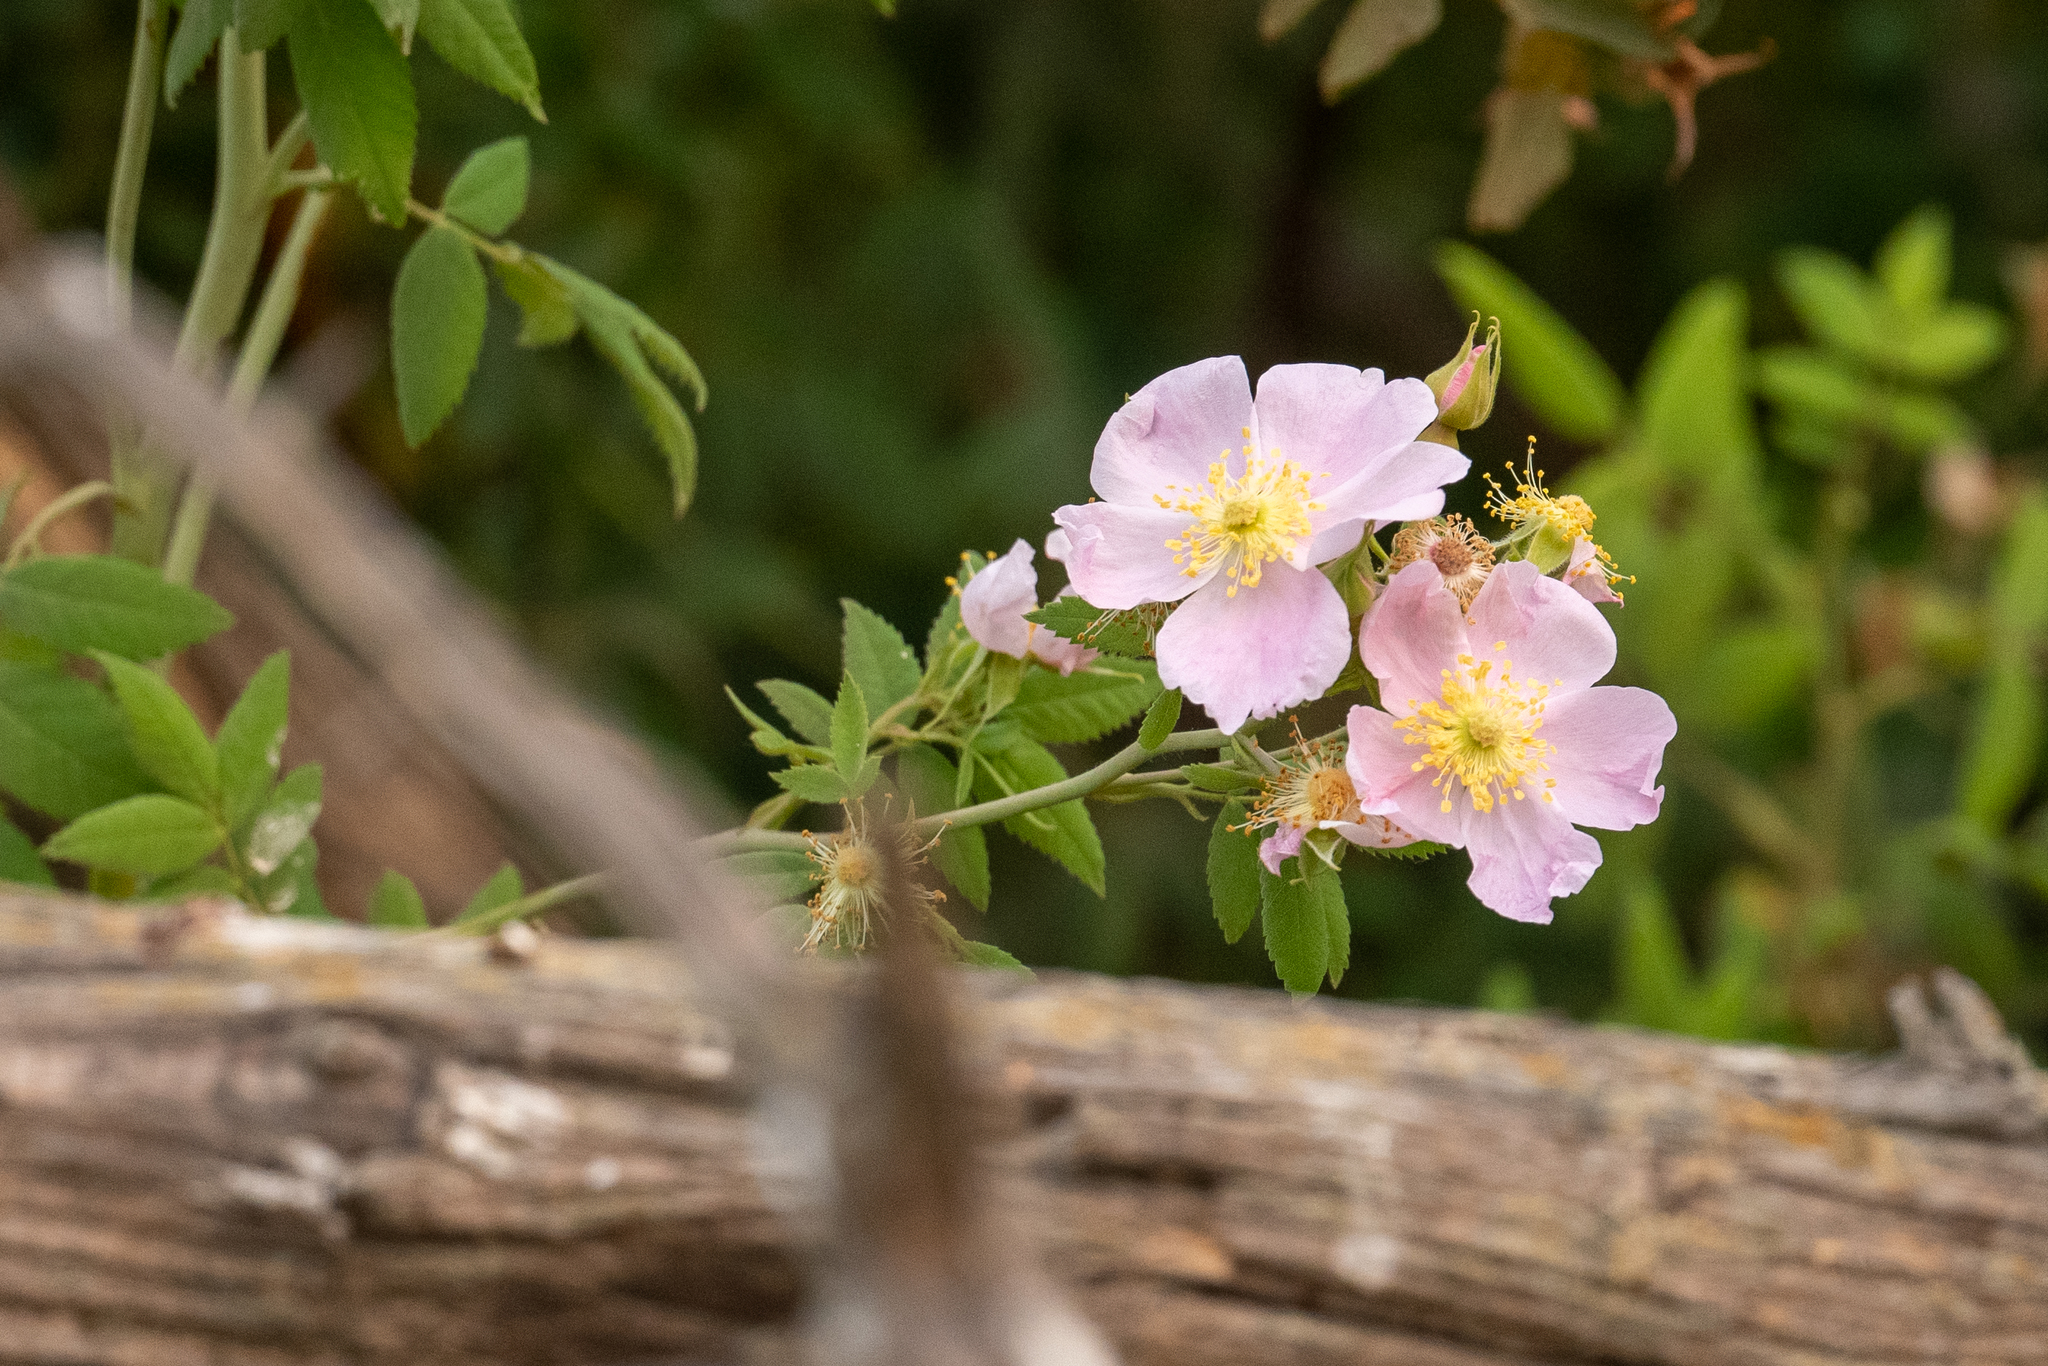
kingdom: Plantae
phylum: Tracheophyta
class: Magnoliopsida
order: Rosales
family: Rosaceae
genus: Rosa
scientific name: Rosa californica
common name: California rose
